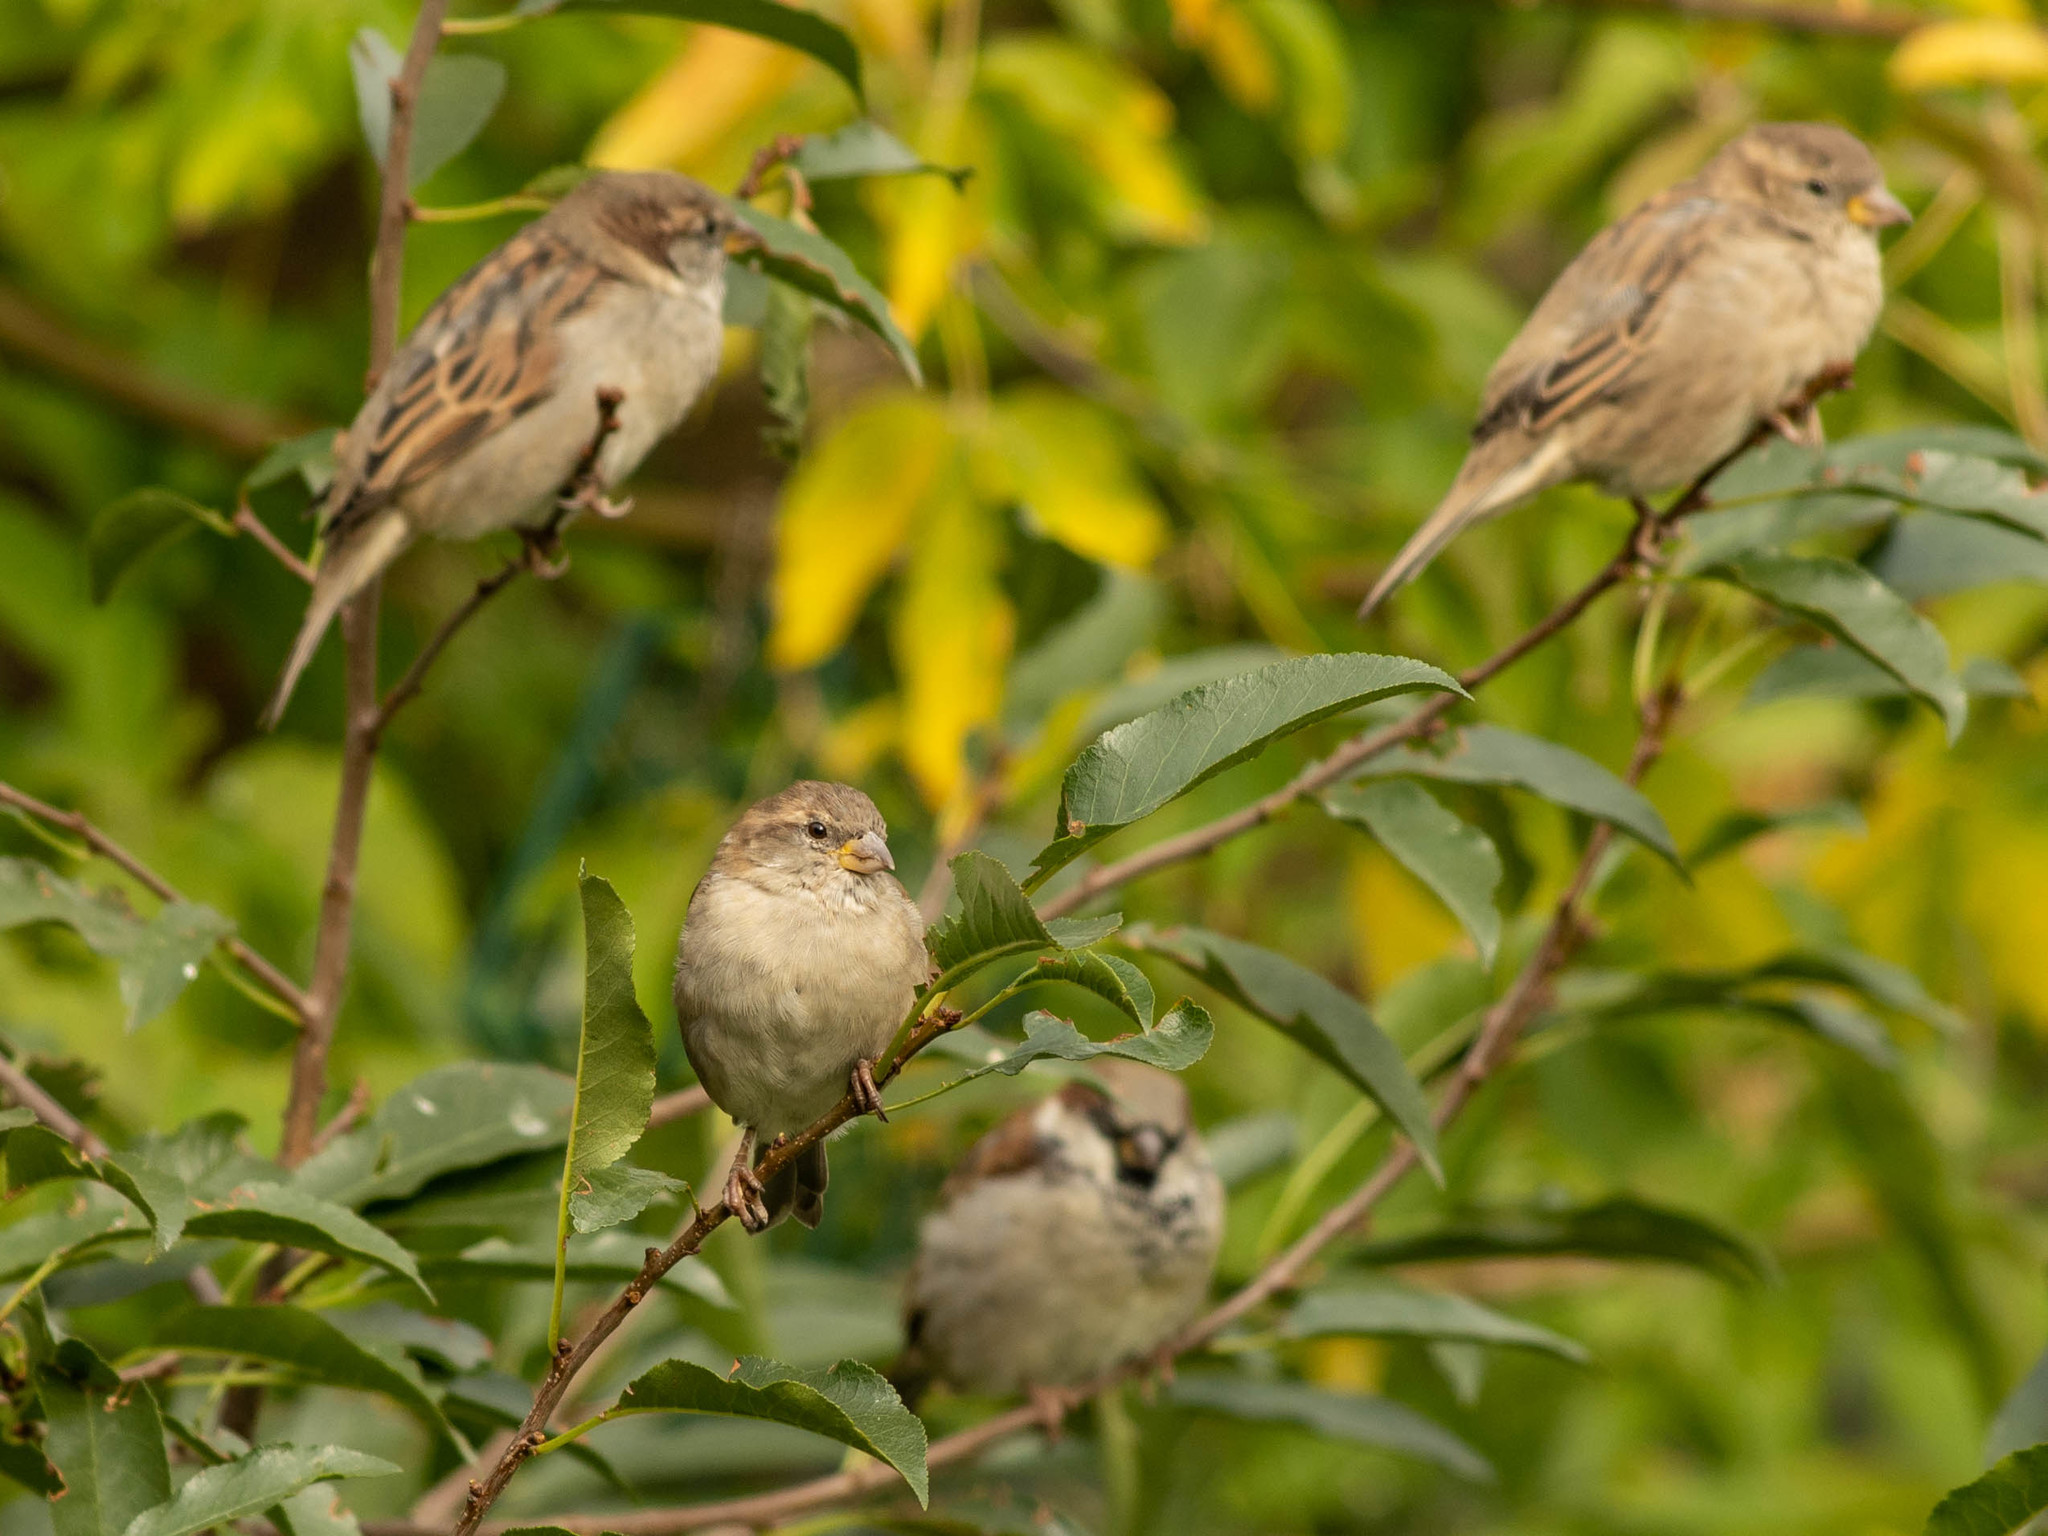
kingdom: Animalia
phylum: Chordata
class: Aves
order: Passeriformes
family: Passeridae
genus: Passer
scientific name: Passer domesticus
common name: House sparrow
